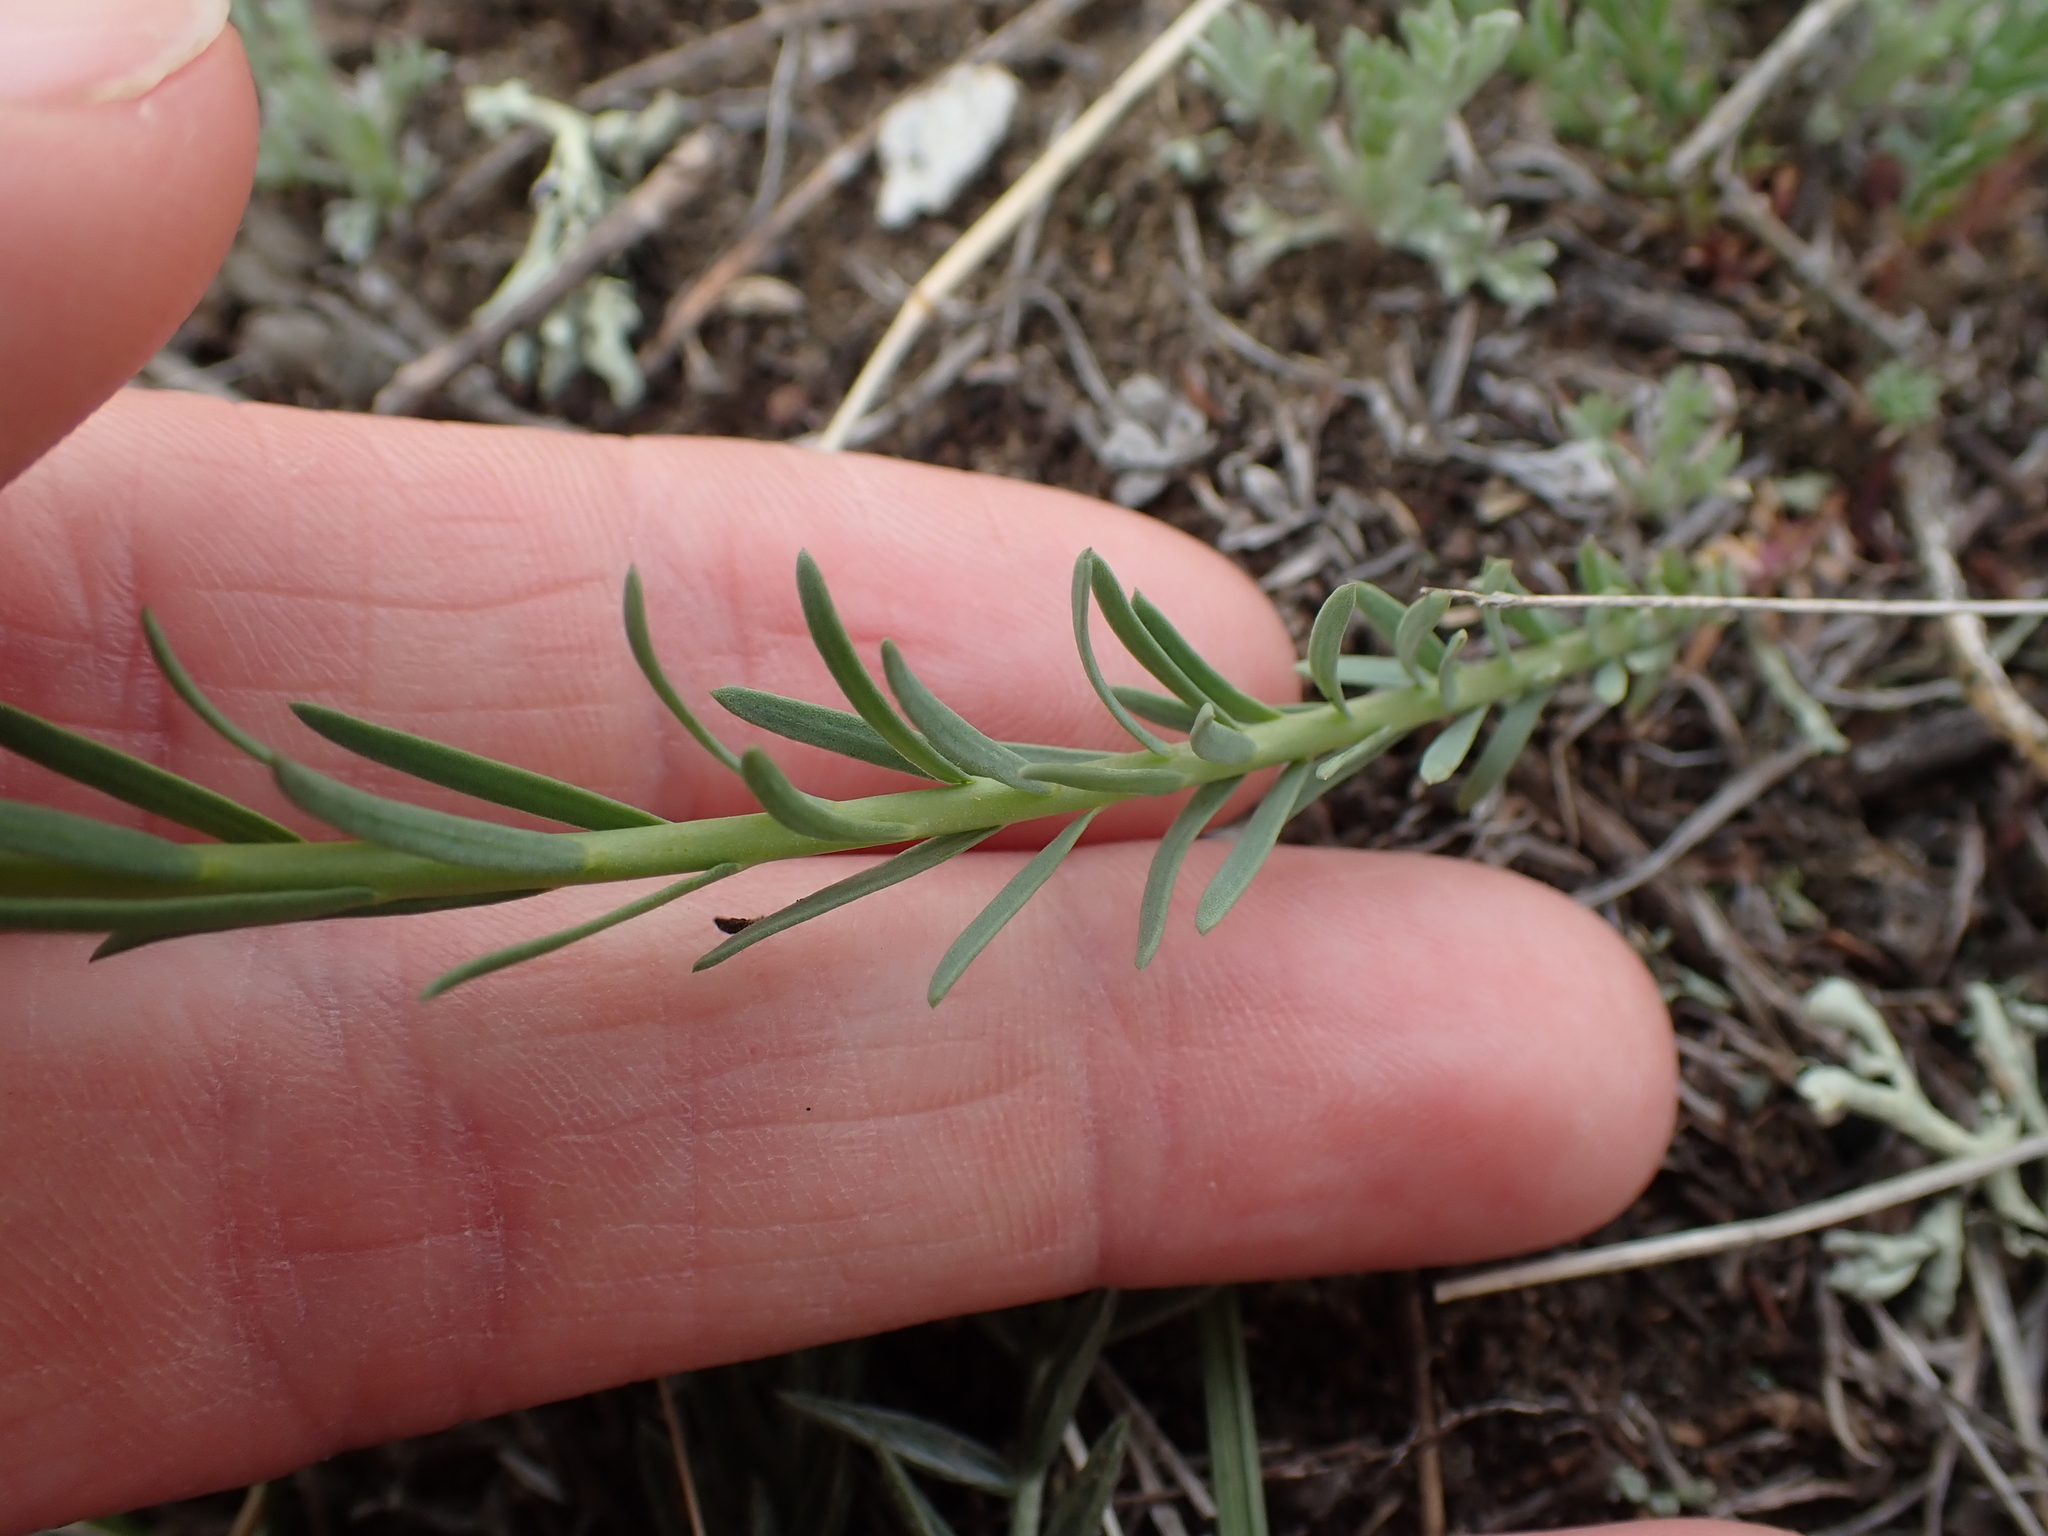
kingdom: Plantae
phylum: Tracheophyta
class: Magnoliopsida
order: Malpighiales
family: Linaceae
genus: Linum
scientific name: Linum lewisii
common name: Prairie flax
